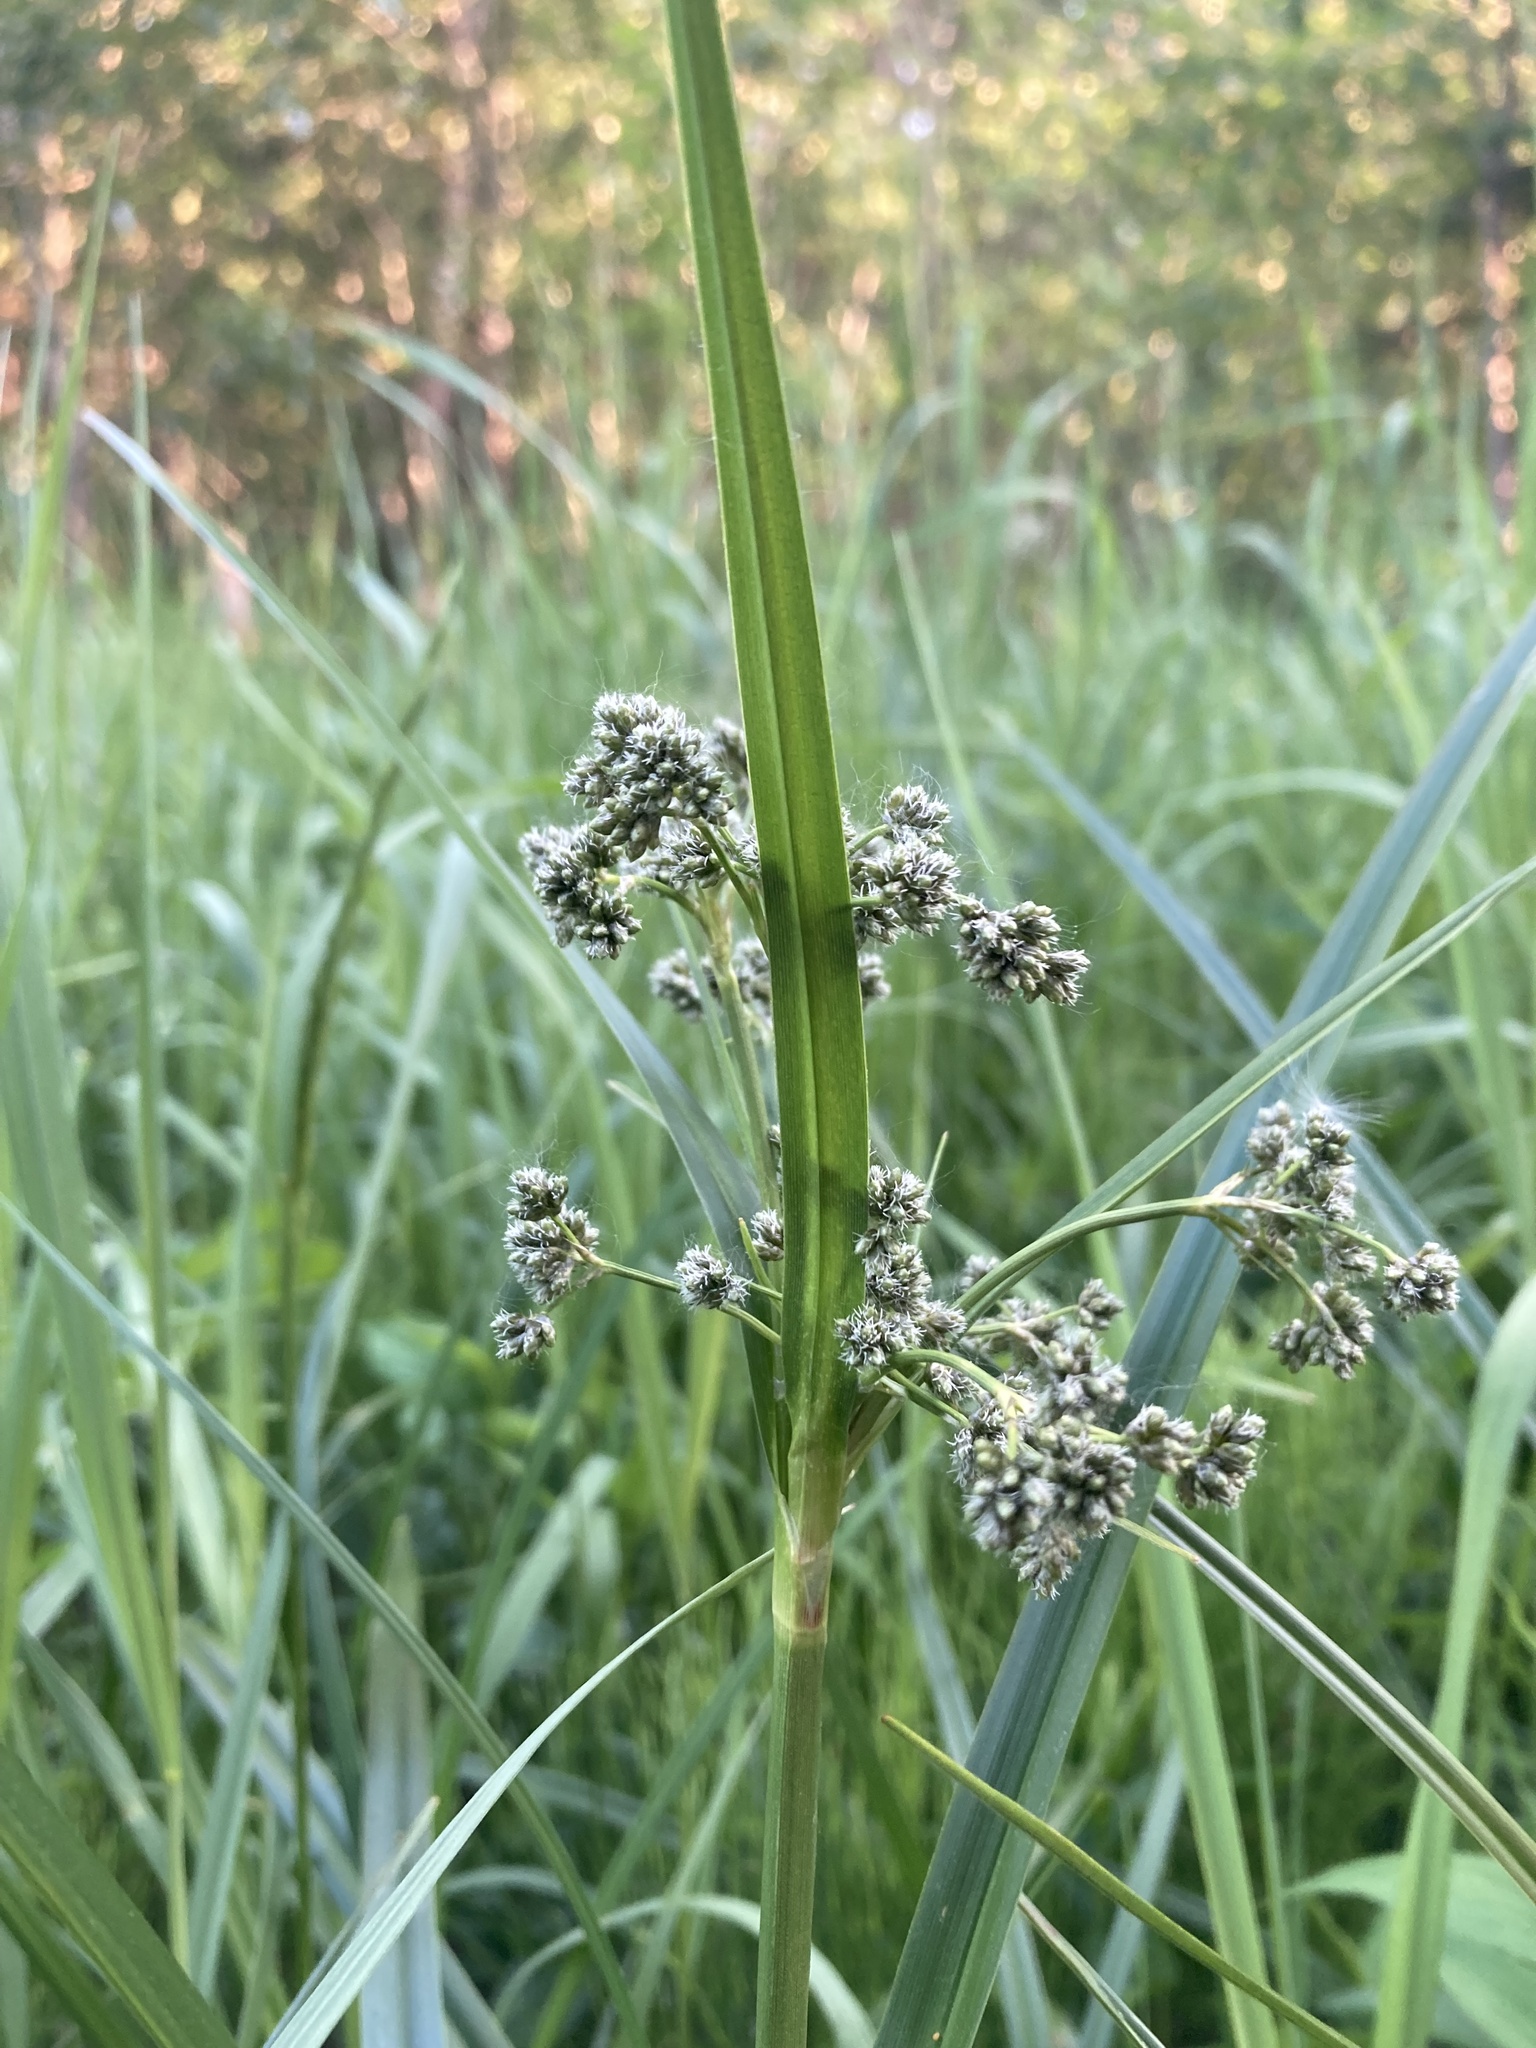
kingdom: Plantae
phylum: Tracheophyta
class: Liliopsida
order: Poales
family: Cyperaceae
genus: Scirpus
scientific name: Scirpus microcarpus
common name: Panicled bulrush
